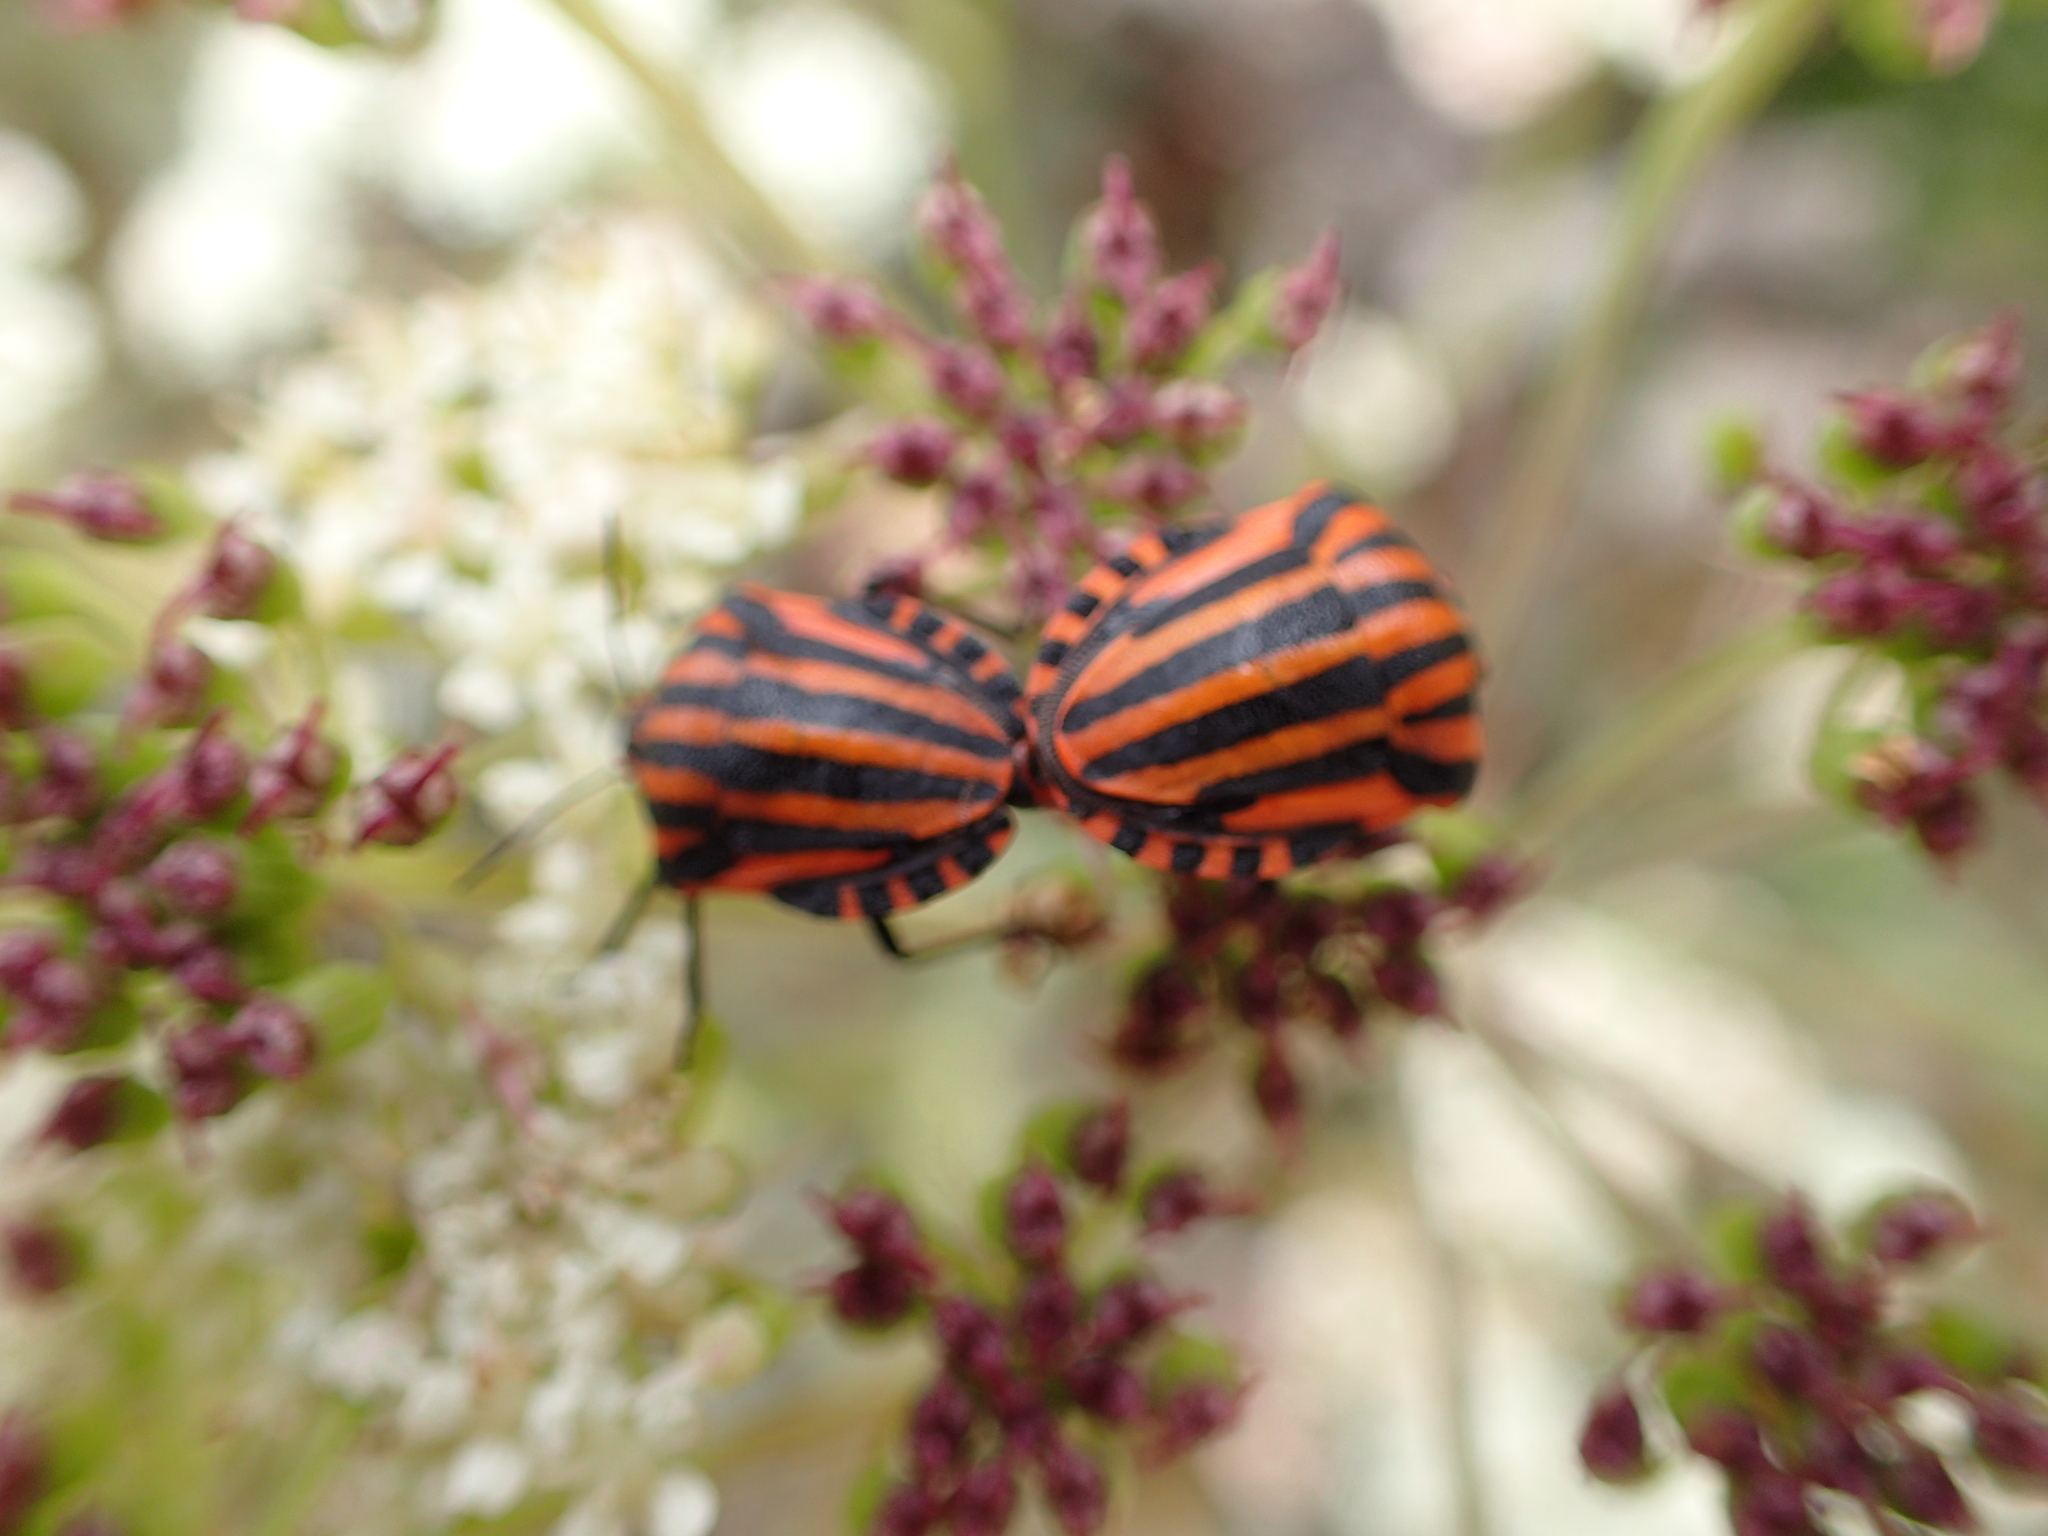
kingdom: Animalia
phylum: Arthropoda
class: Insecta
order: Hemiptera
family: Pentatomidae
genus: Graphosoma
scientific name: Graphosoma italicum
